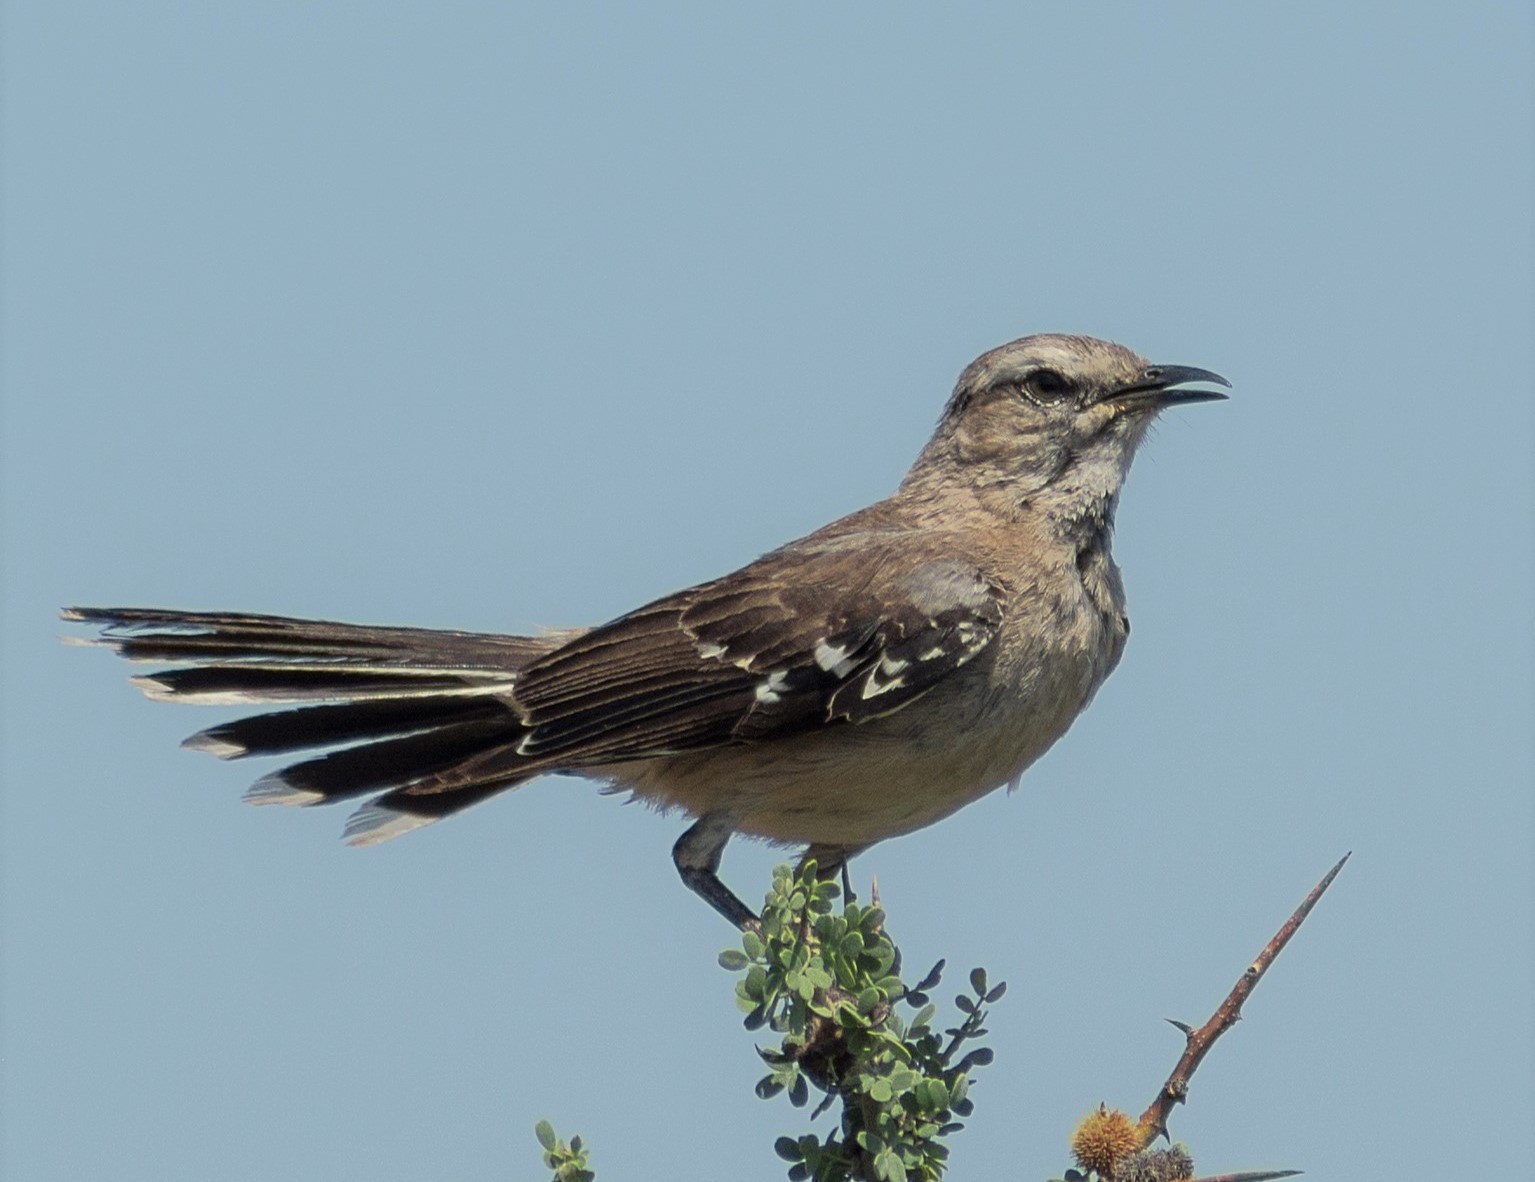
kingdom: Animalia
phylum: Chordata
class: Aves
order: Passeriformes
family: Mimidae
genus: Mimus
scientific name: Mimus patagonicus
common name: Patagonian mockingbird
